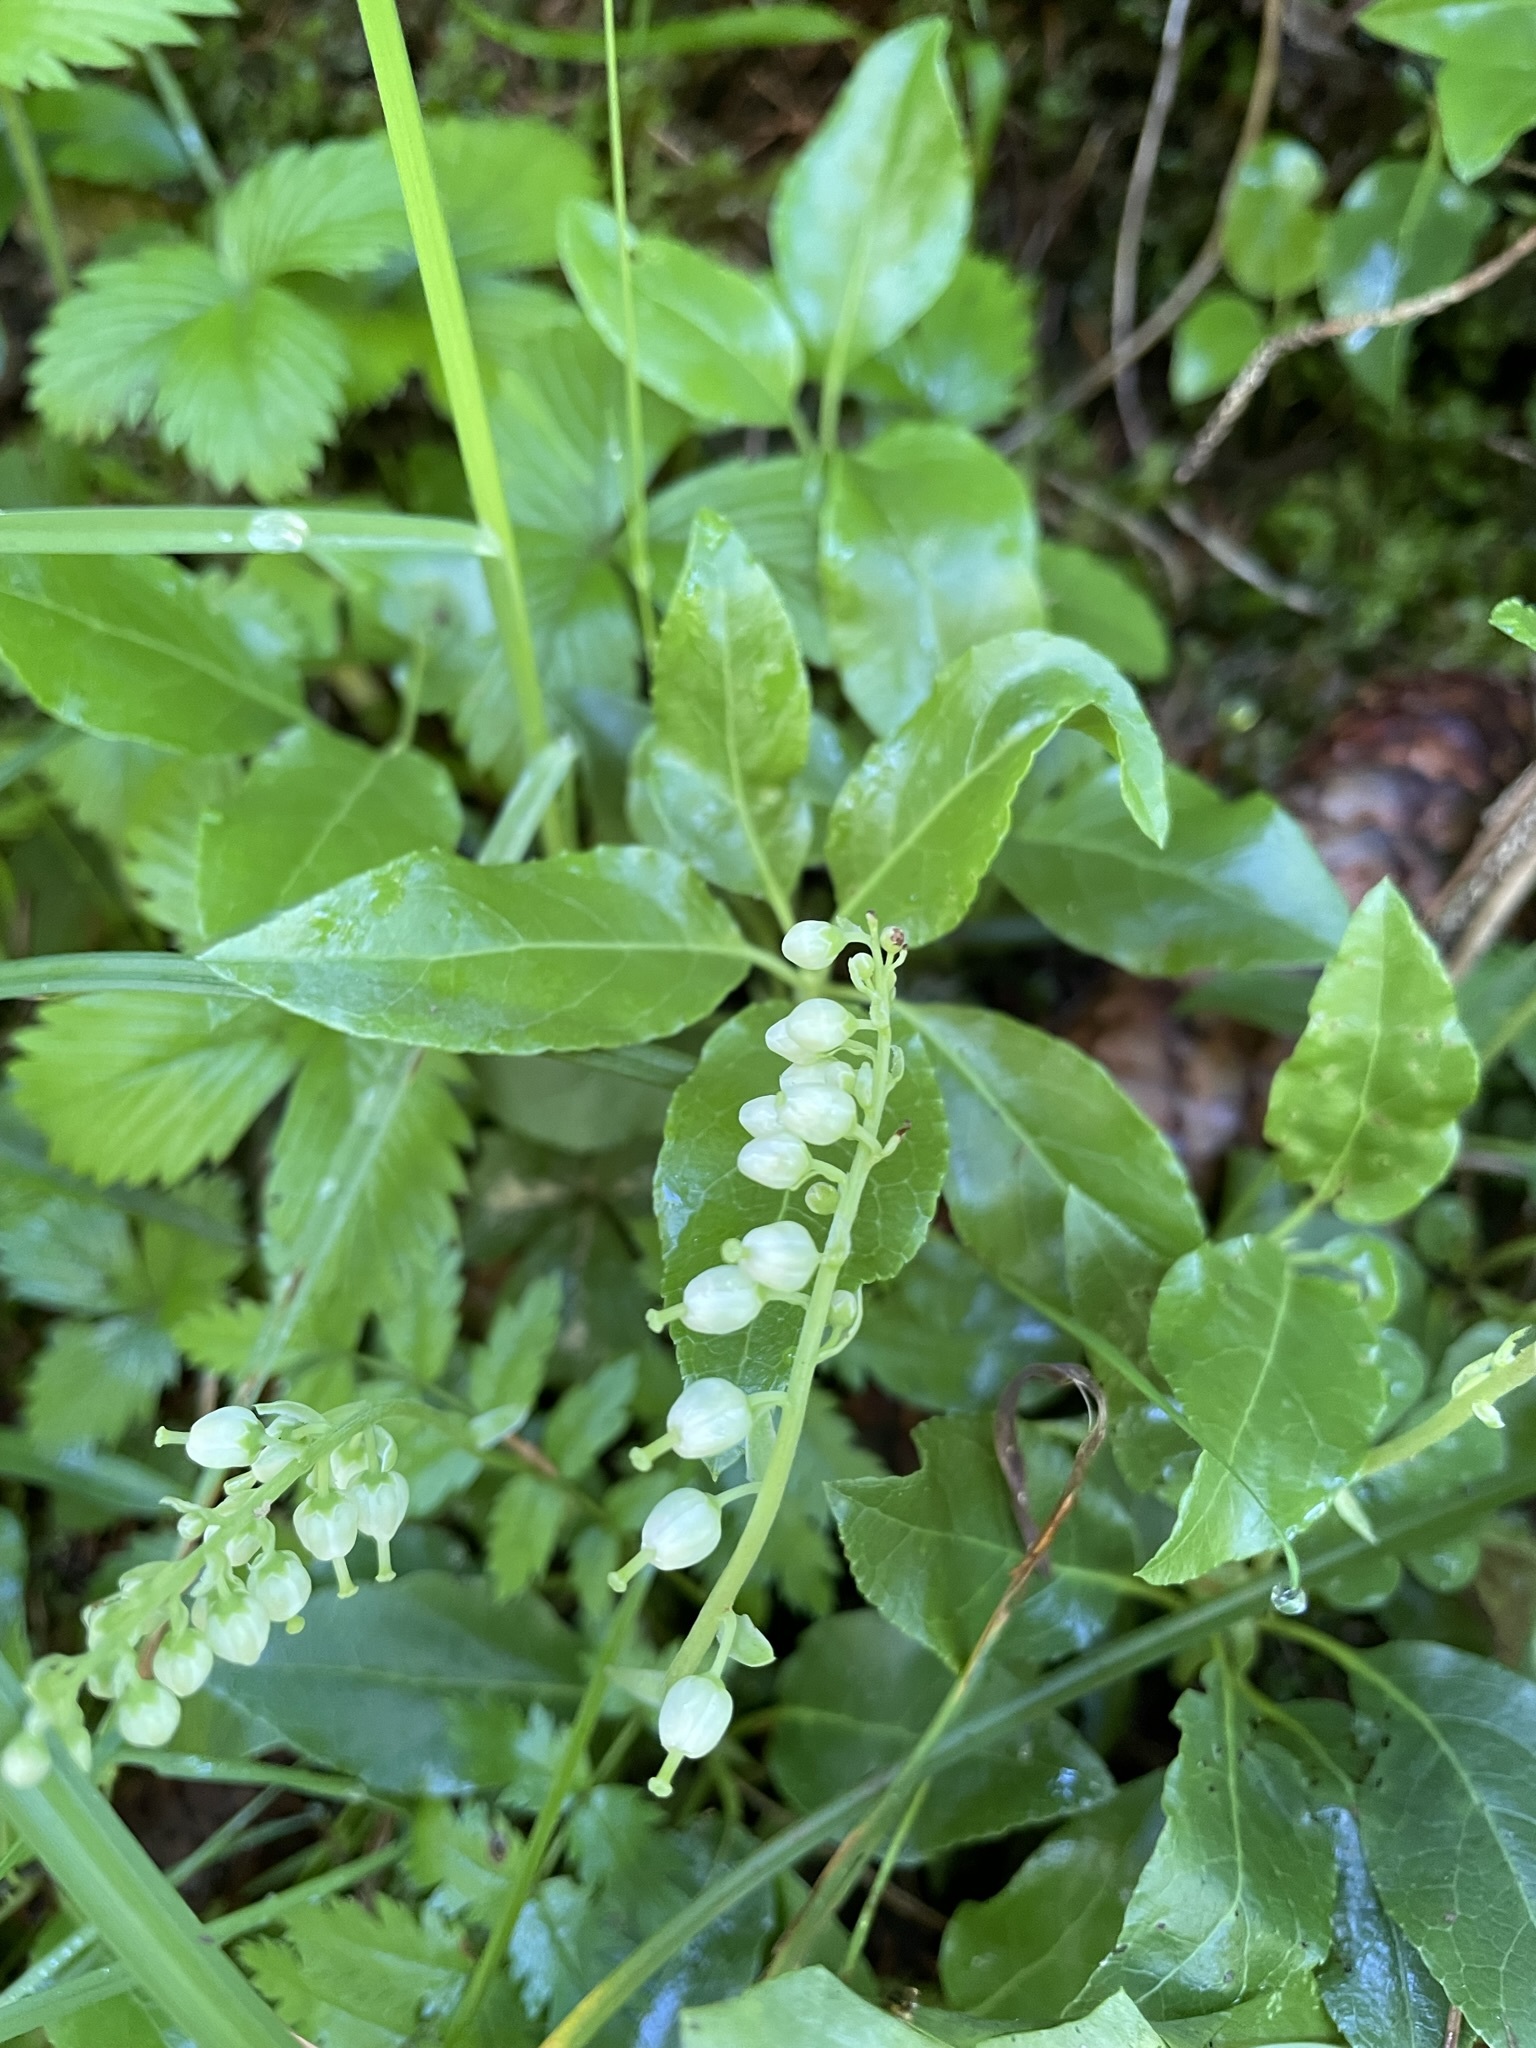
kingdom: Plantae
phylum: Tracheophyta
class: Magnoliopsida
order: Ericales
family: Ericaceae
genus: Orthilia
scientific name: Orthilia secunda
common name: One-sided orthilia
